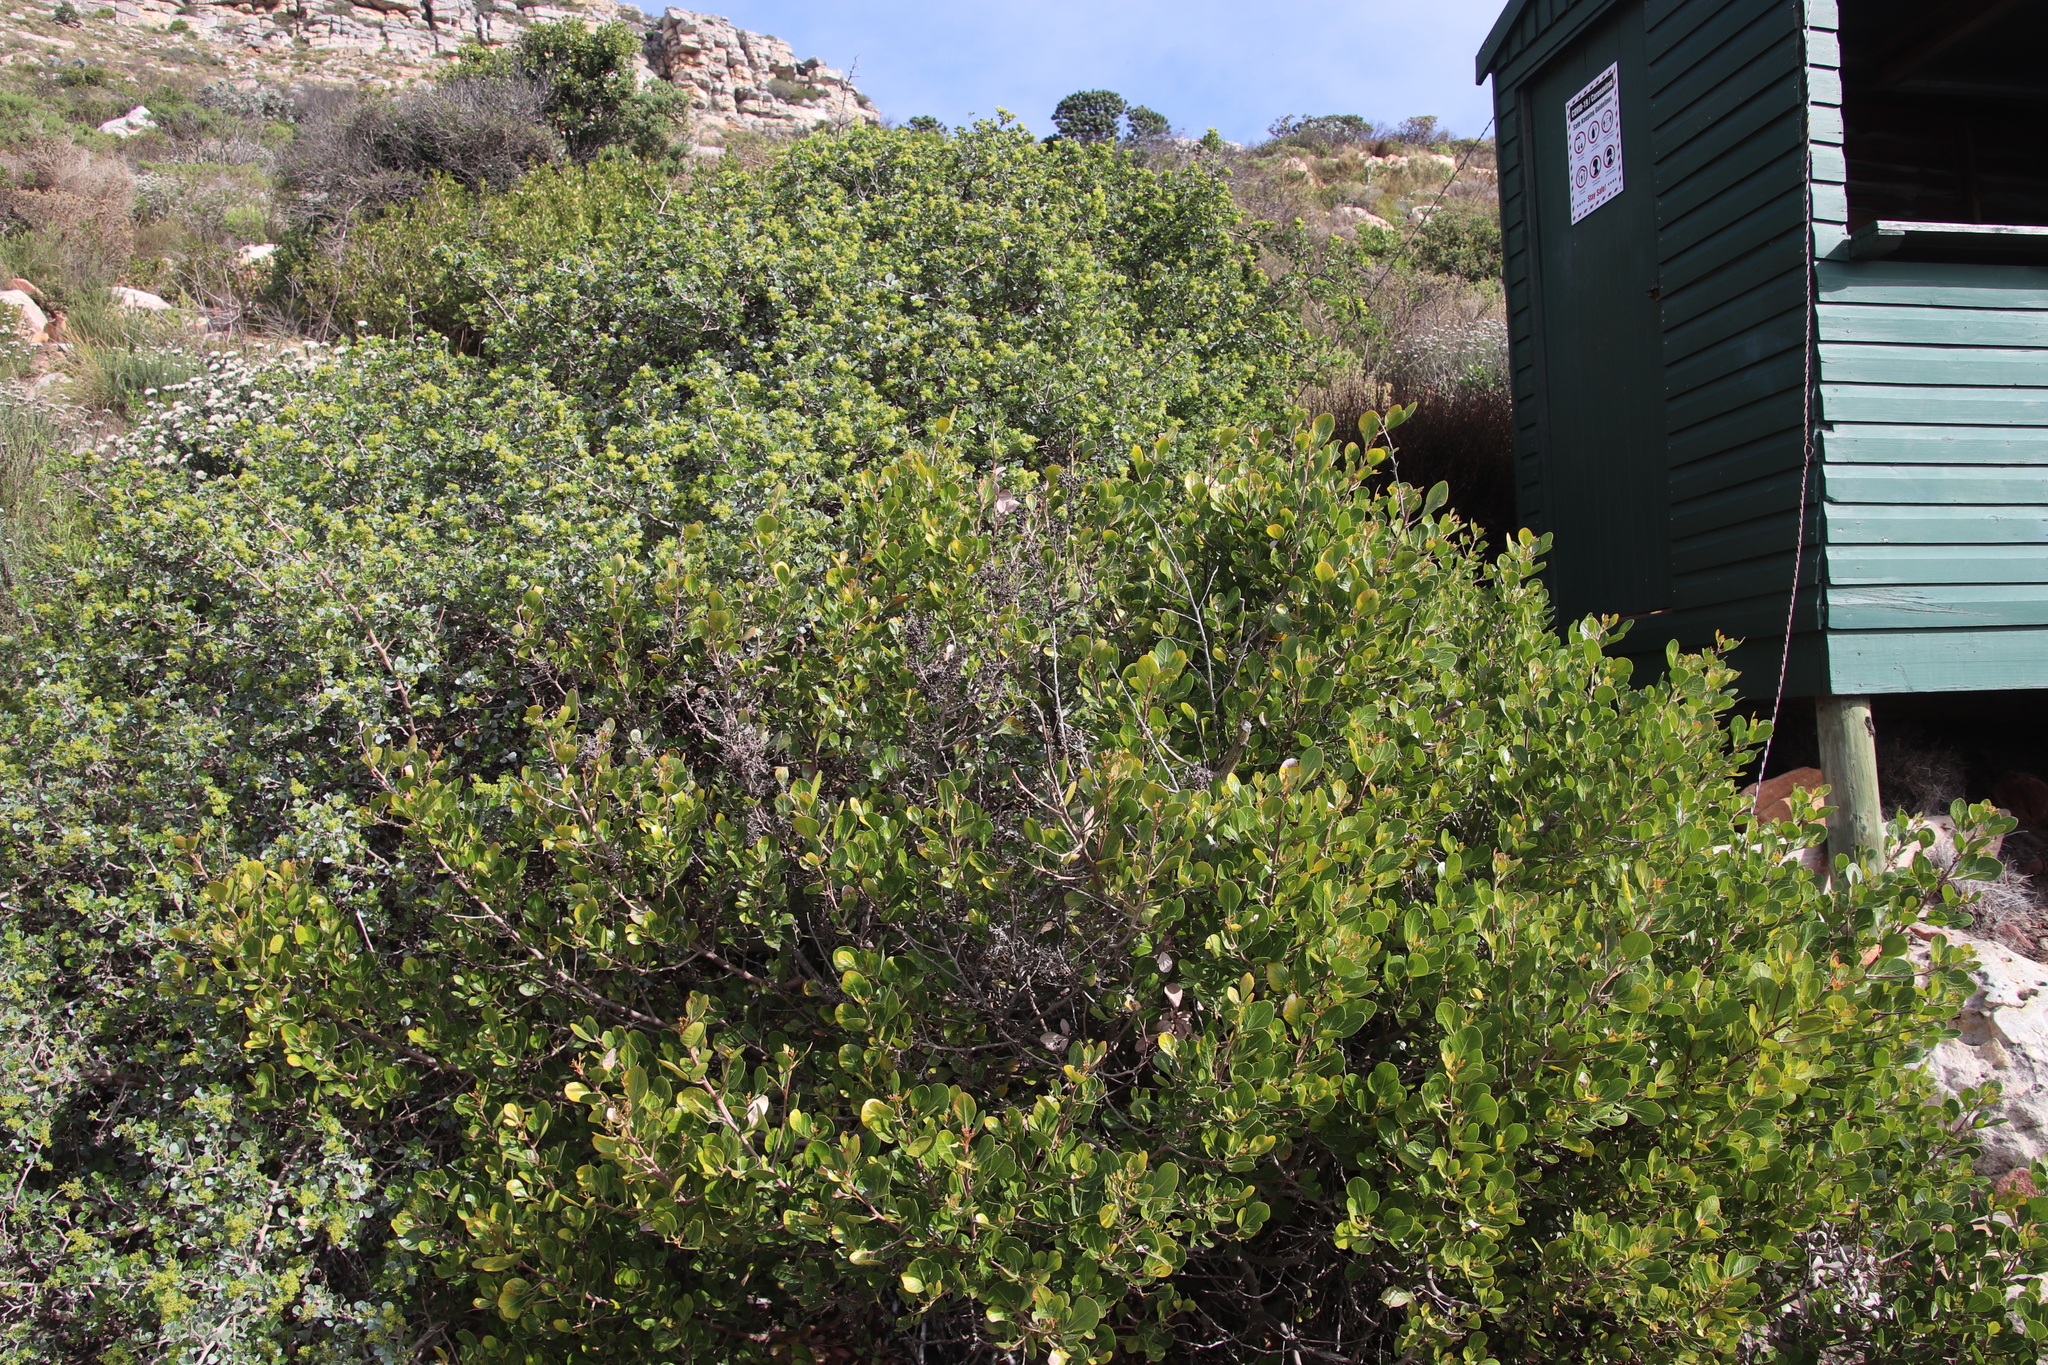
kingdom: Plantae
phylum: Tracheophyta
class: Magnoliopsida
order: Sapindales
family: Anacardiaceae
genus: Searsia
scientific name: Searsia glauca
